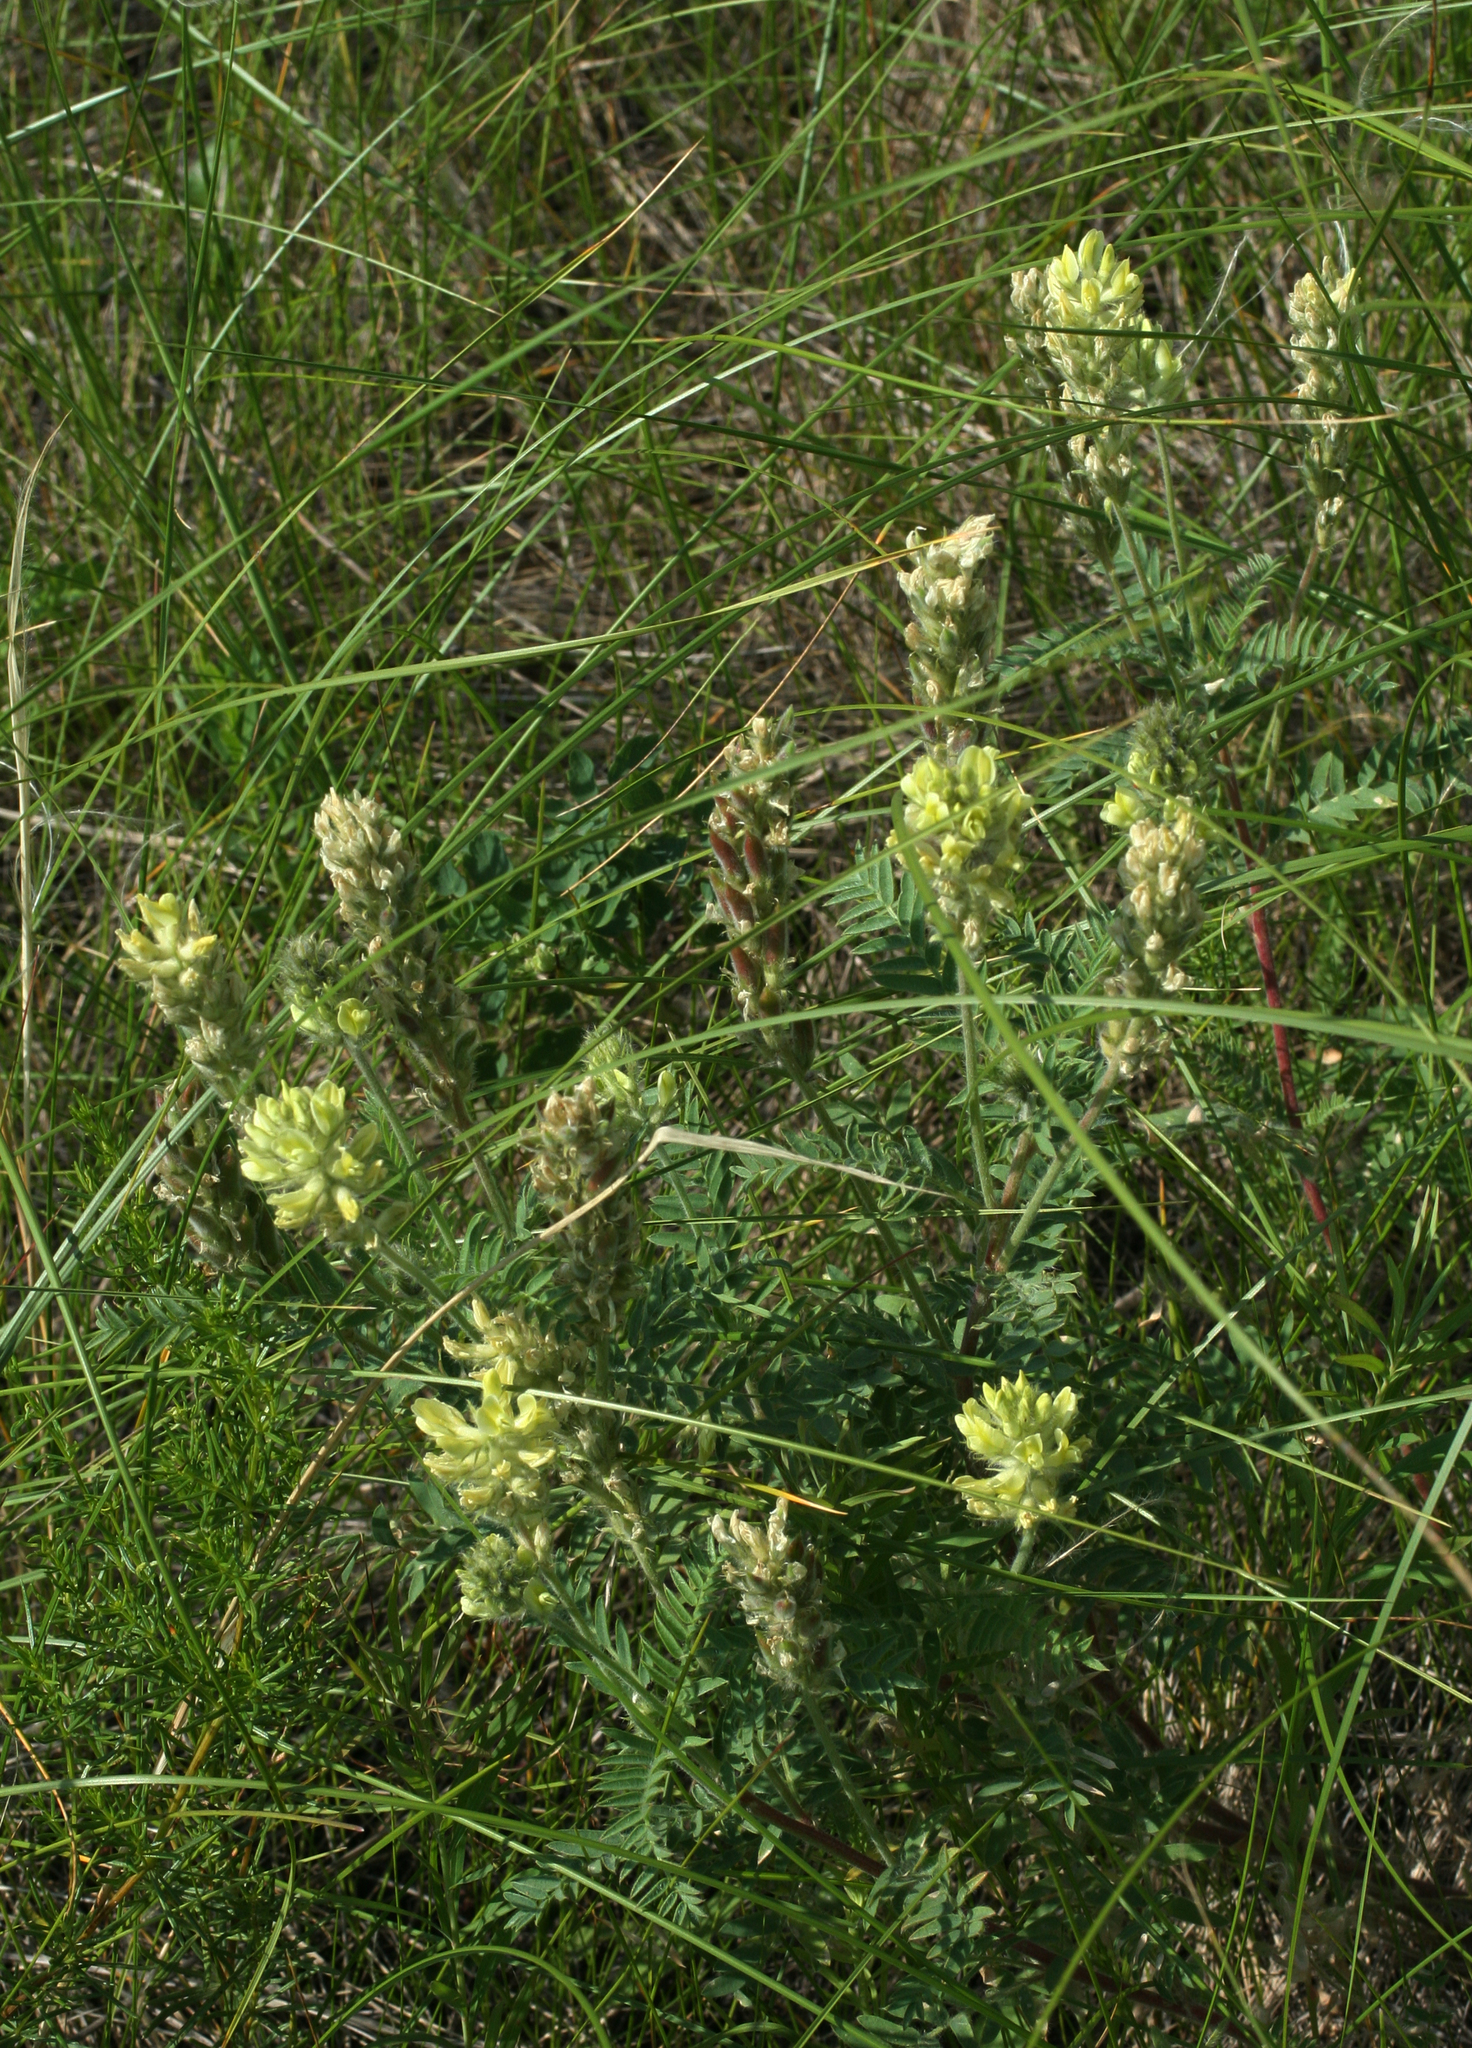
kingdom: Plantae
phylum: Tracheophyta
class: Magnoliopsida
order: Fabales
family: Fabaceae
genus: Oxytropis
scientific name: Oxytropis pilosa
